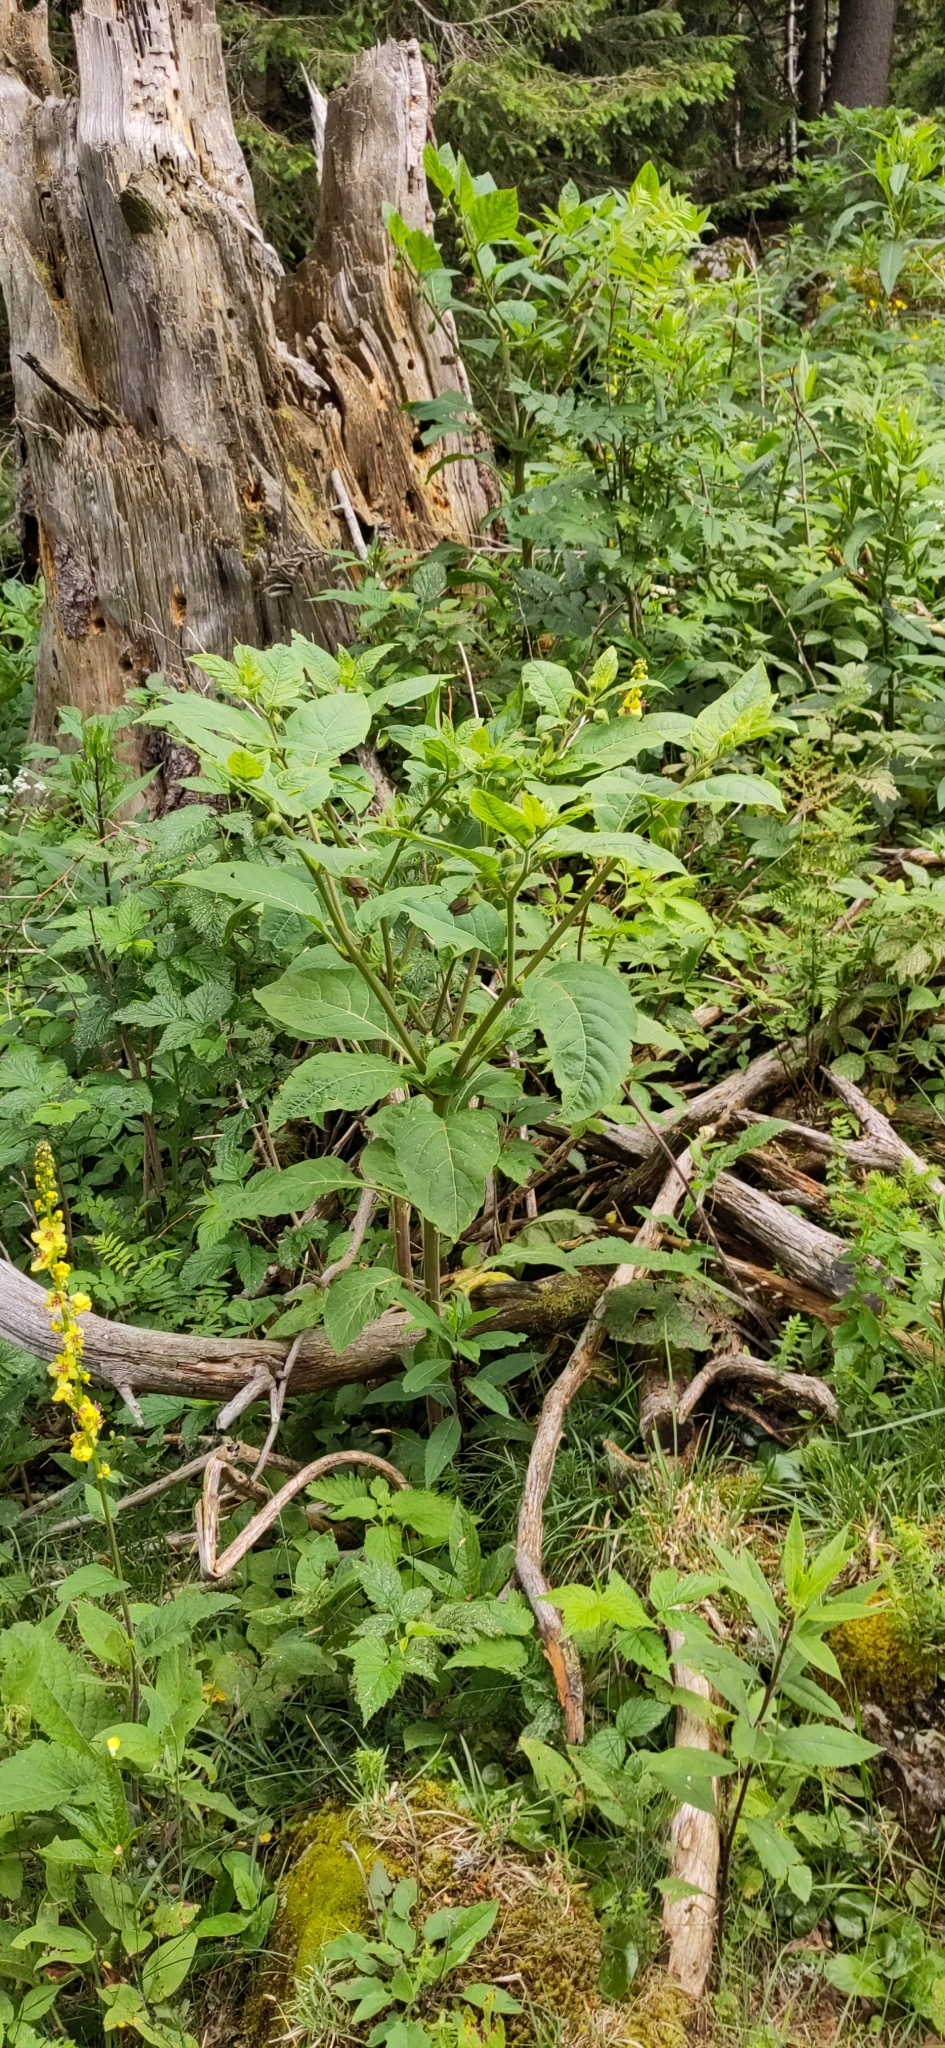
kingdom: Plantae
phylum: Tracheophyta
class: Magnoliopsida
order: Solanales
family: Solanaceae
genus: Atropa
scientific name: Atropa belladonna
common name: Deadly nightshade
